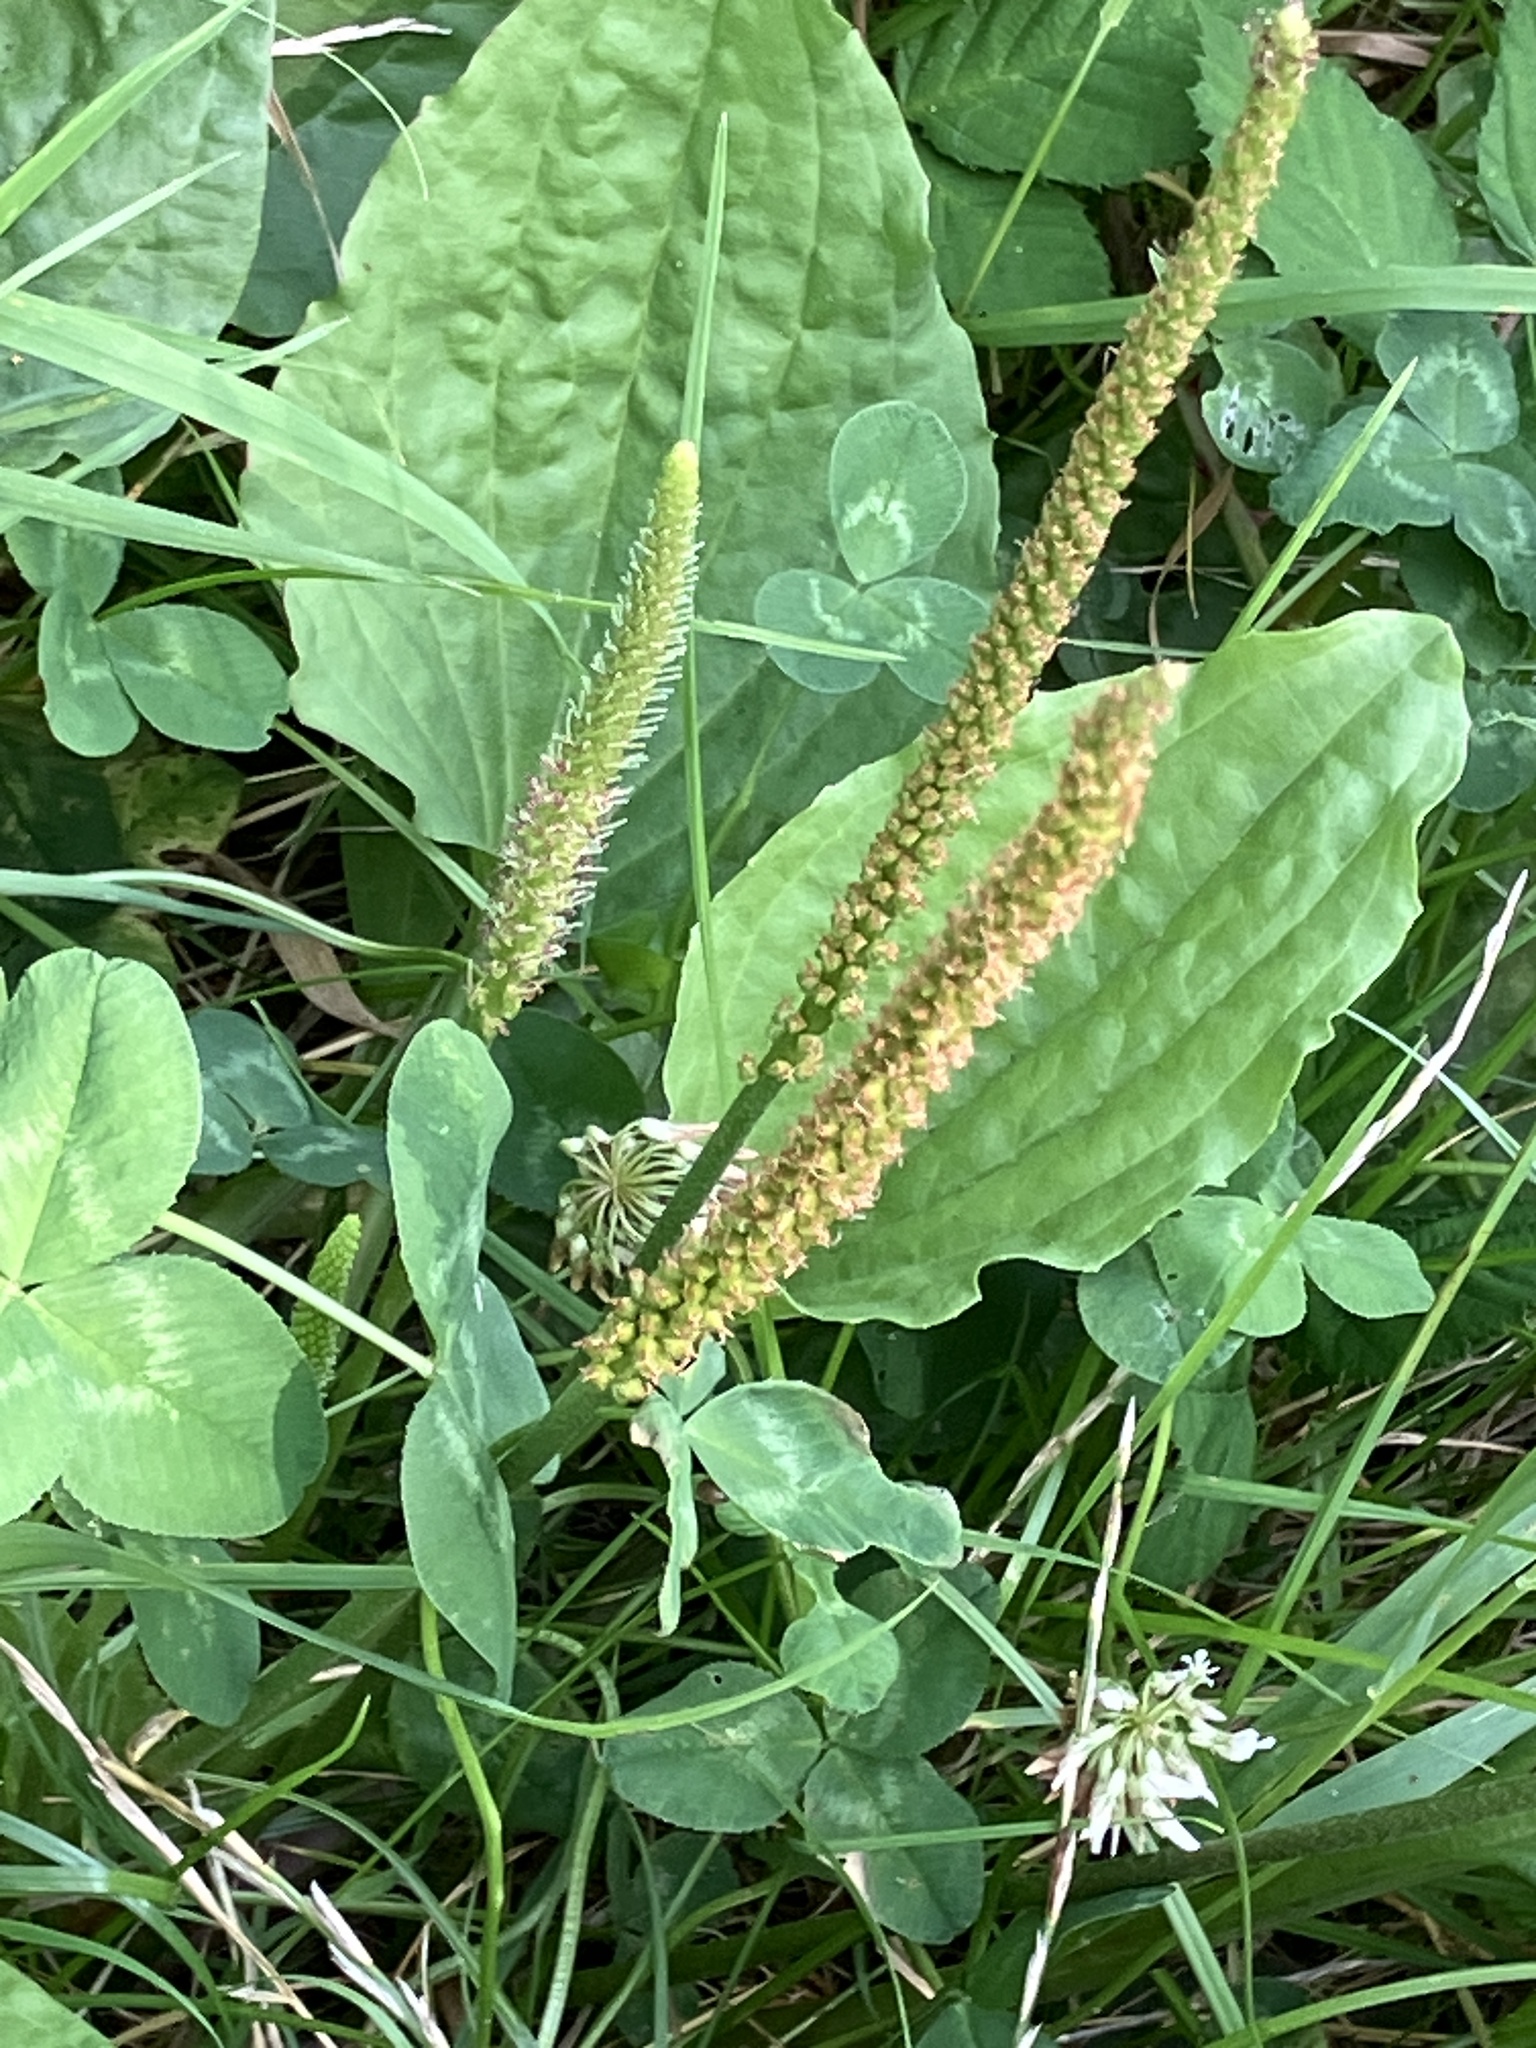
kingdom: Plantae
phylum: Tracheophyta
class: Magnoliopsida
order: Lamiales
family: Plantaginaceae
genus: Plantago
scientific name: Plantago major
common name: Common plantain
